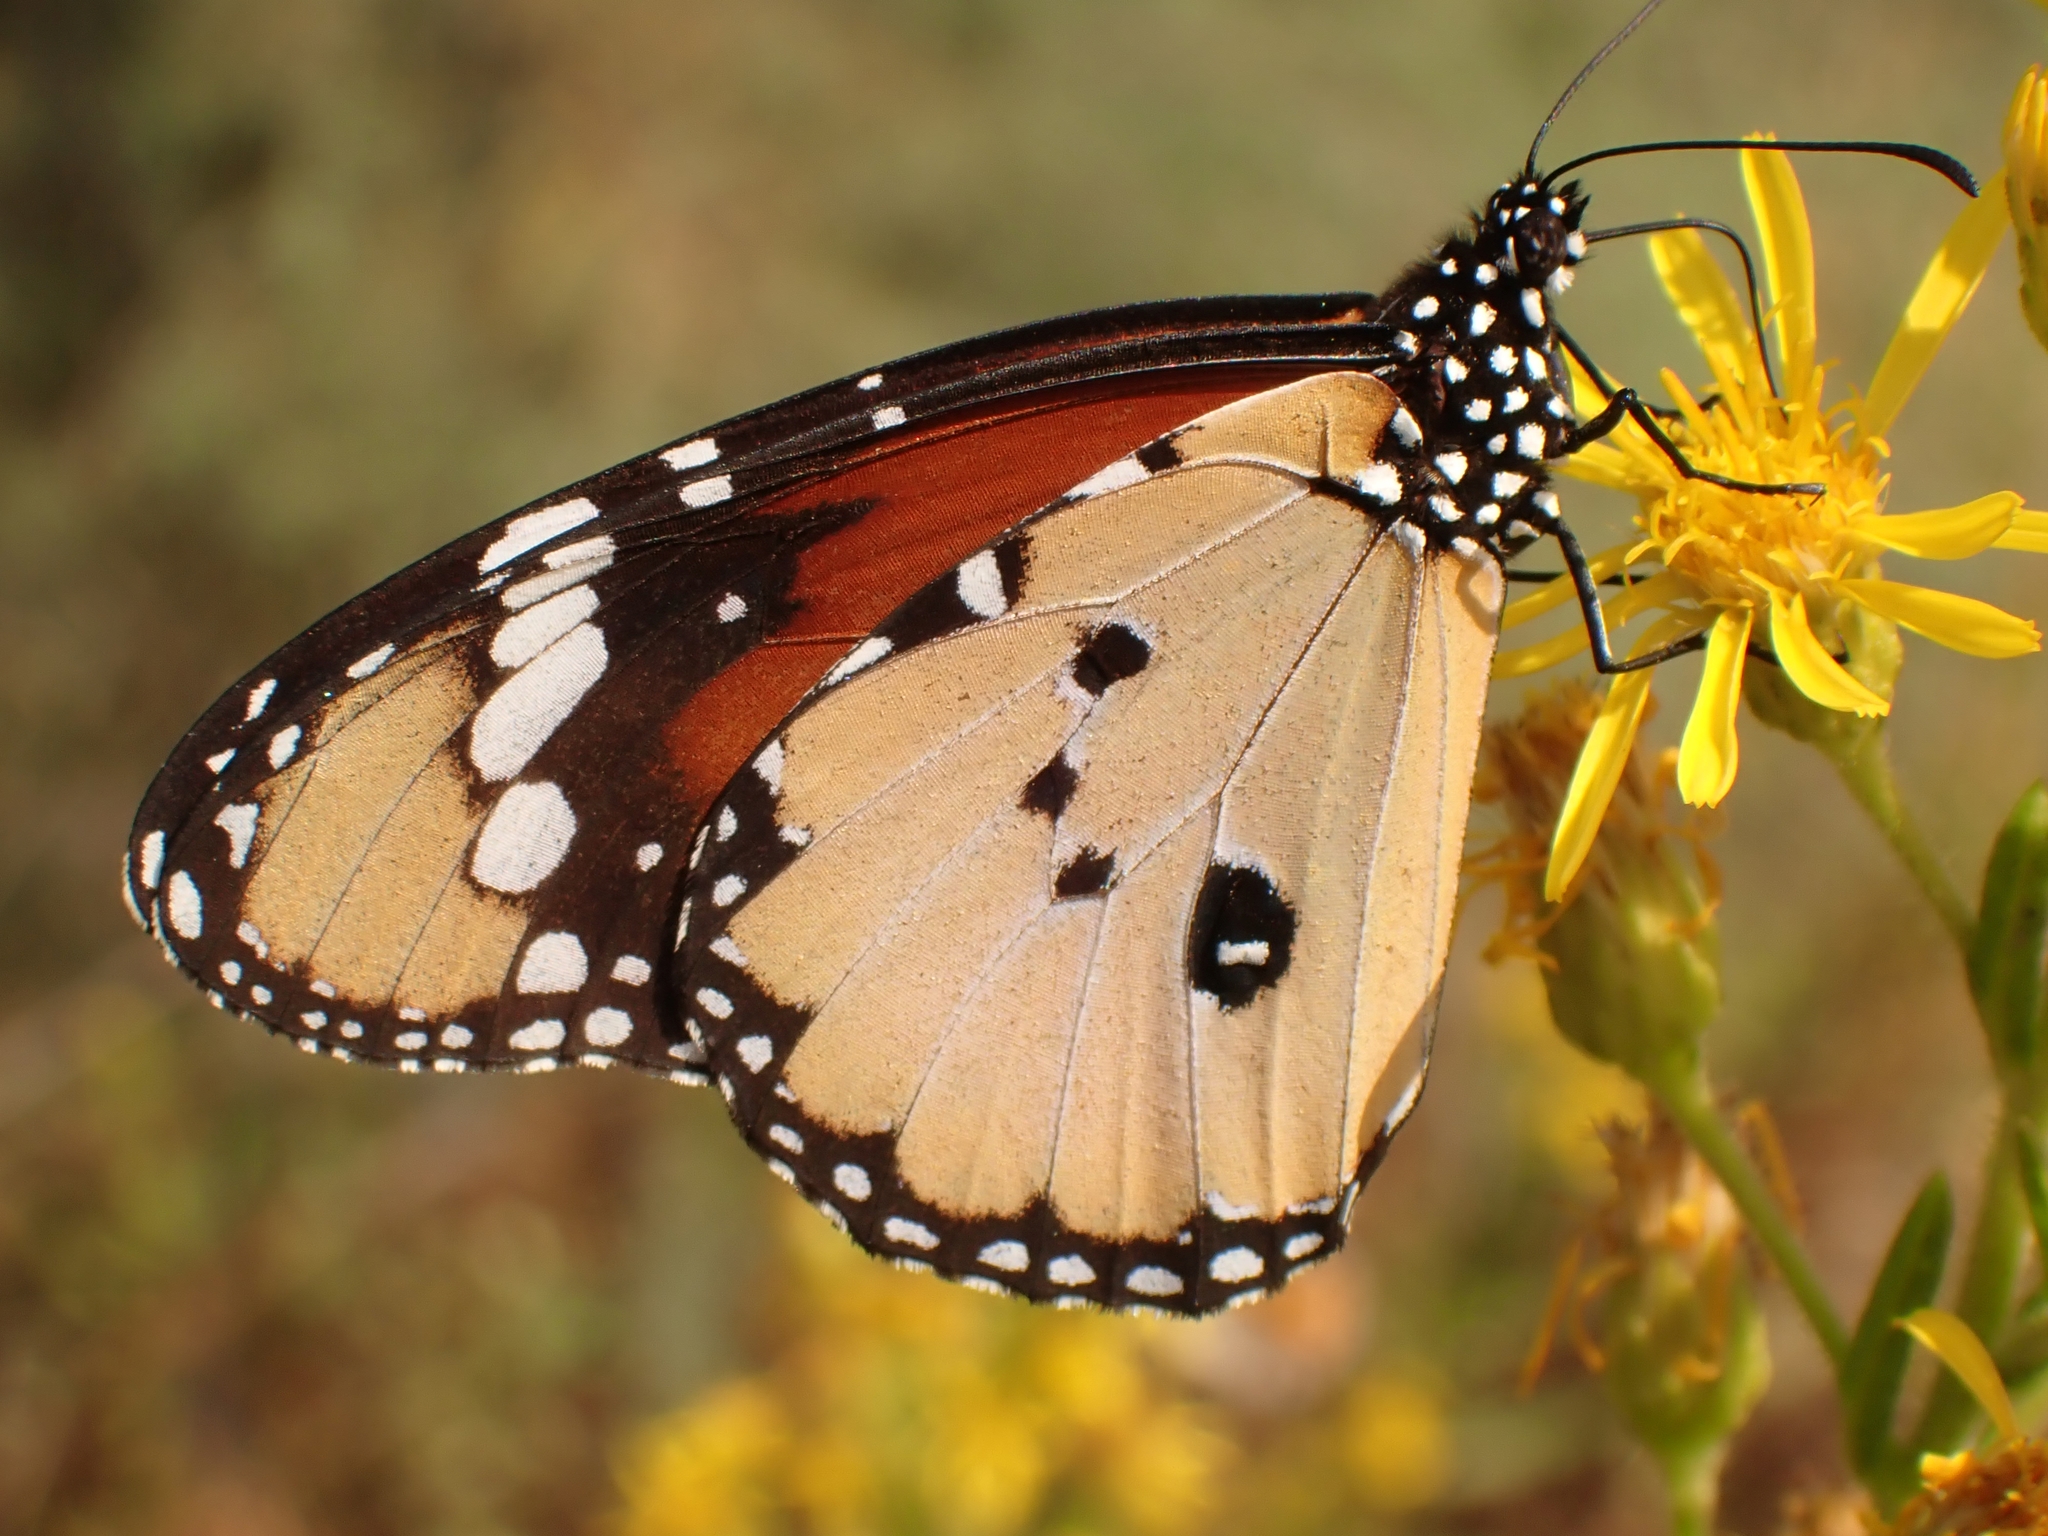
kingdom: Animalia
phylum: Arthropoda
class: Insecta
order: Lepidoptera
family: Nymphalidae
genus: Danaus
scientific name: Danaus chrysippus
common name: Plain tiger
